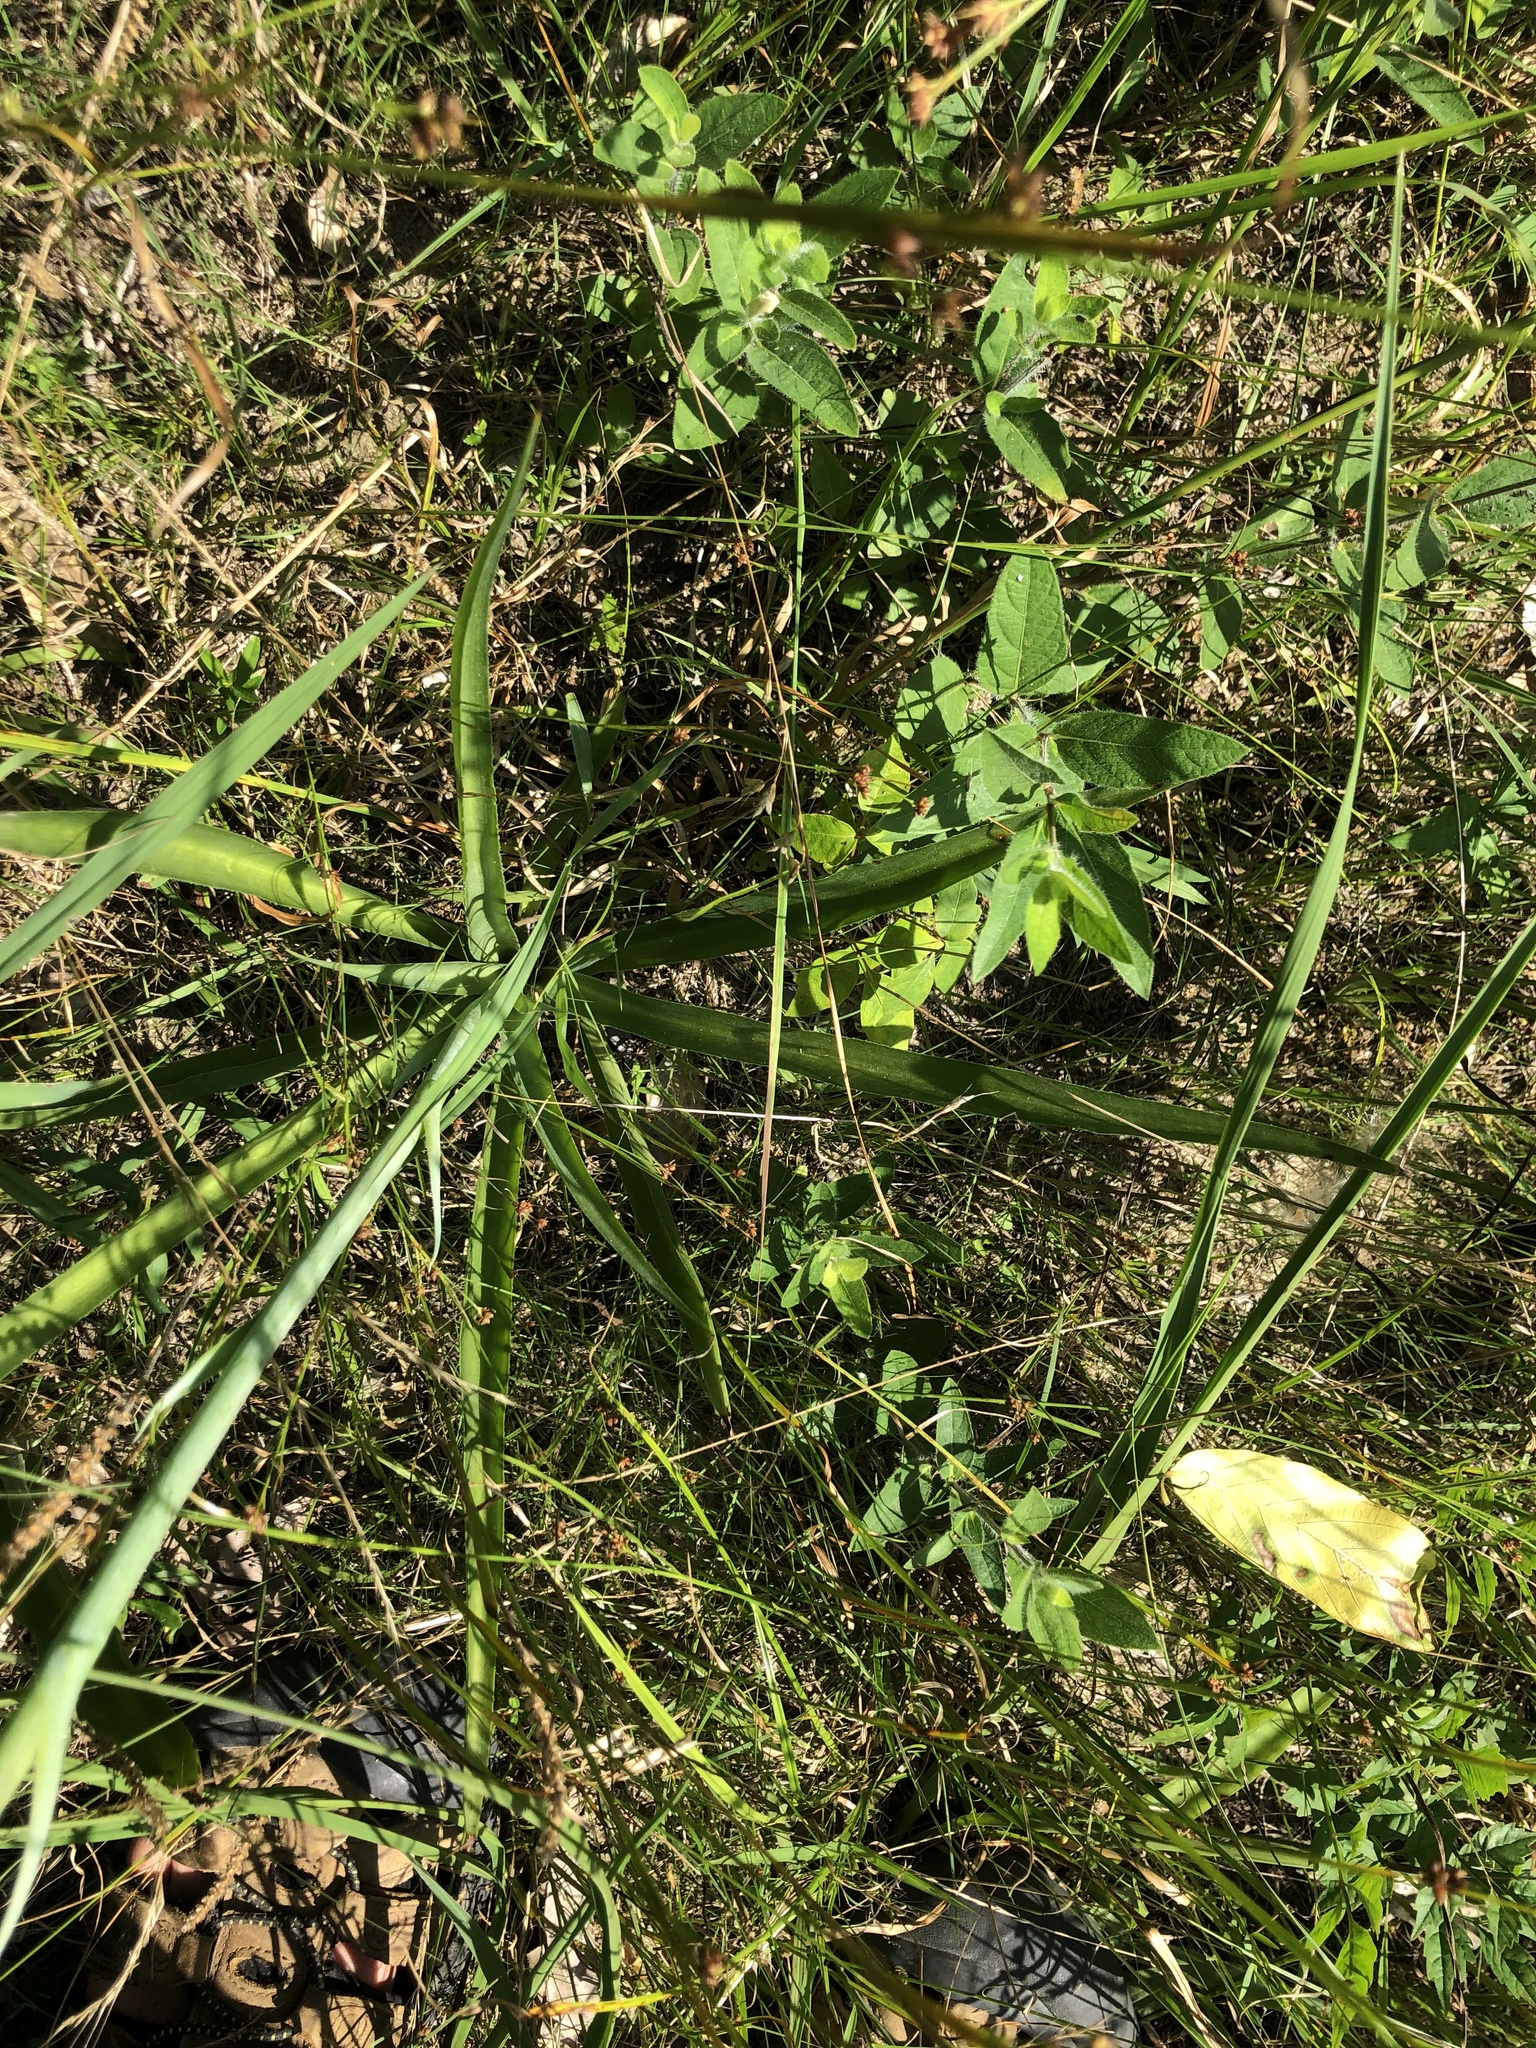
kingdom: Plantae
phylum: Tracheophyta
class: Liliopsida
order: Asparagales
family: Asparagaceae
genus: Agave
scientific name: Agave virginica
